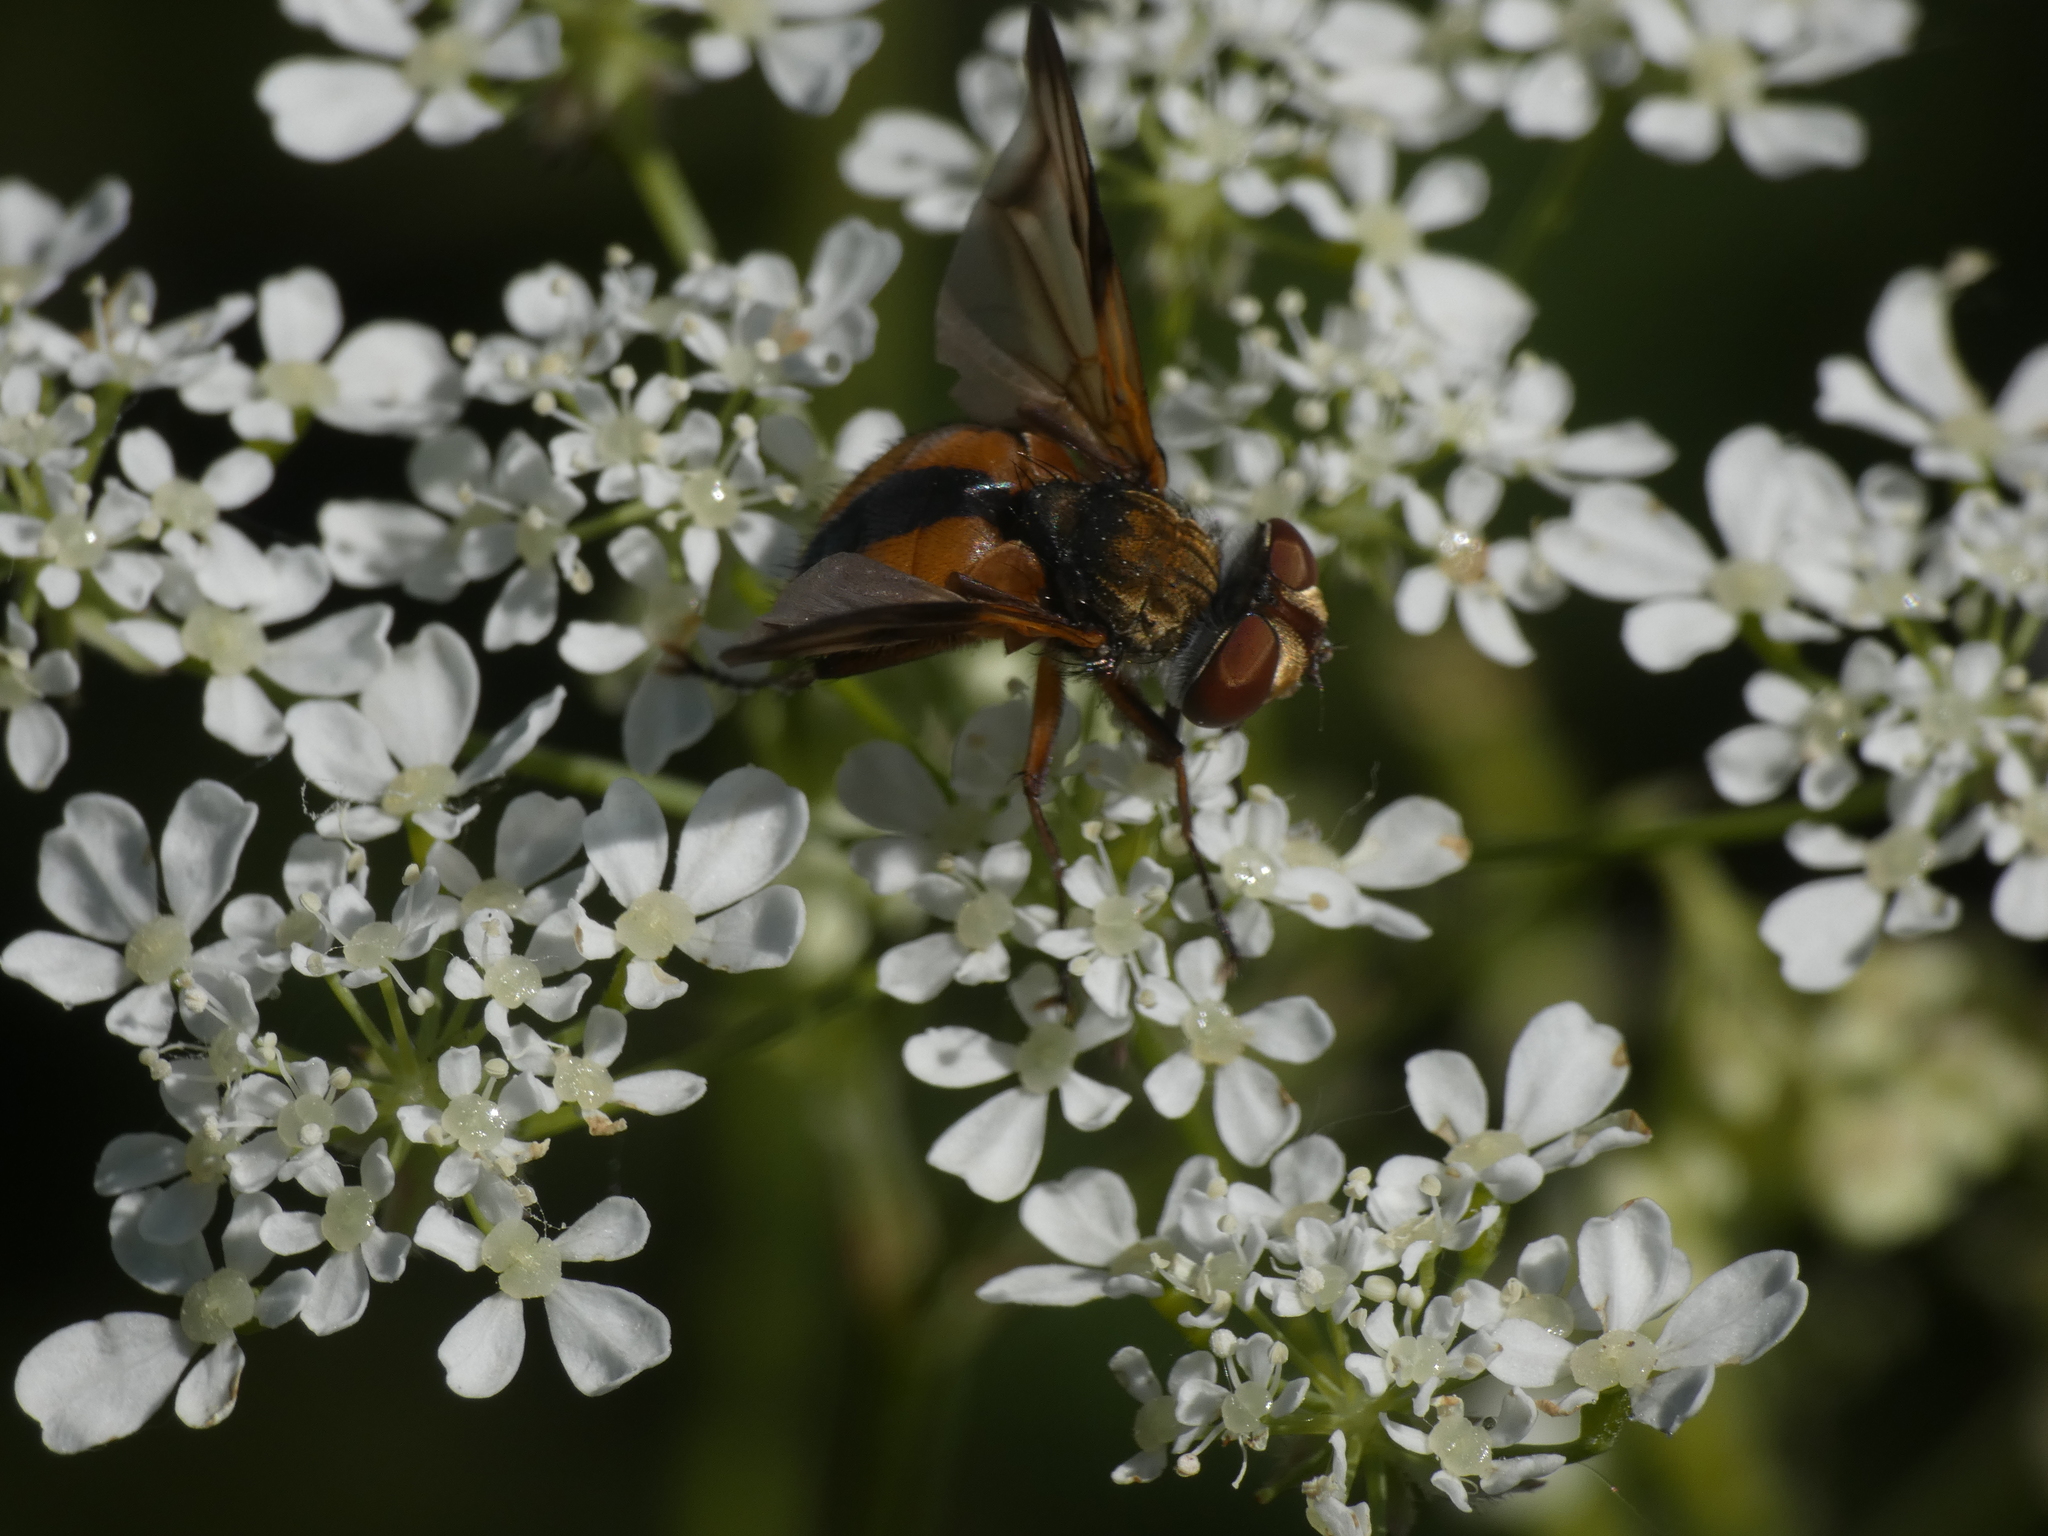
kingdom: Animalia
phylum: Arthropoda
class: Insecta
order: Diptera
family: Tachinidae
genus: Ectophasia
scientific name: Ectophasia crassipennis
